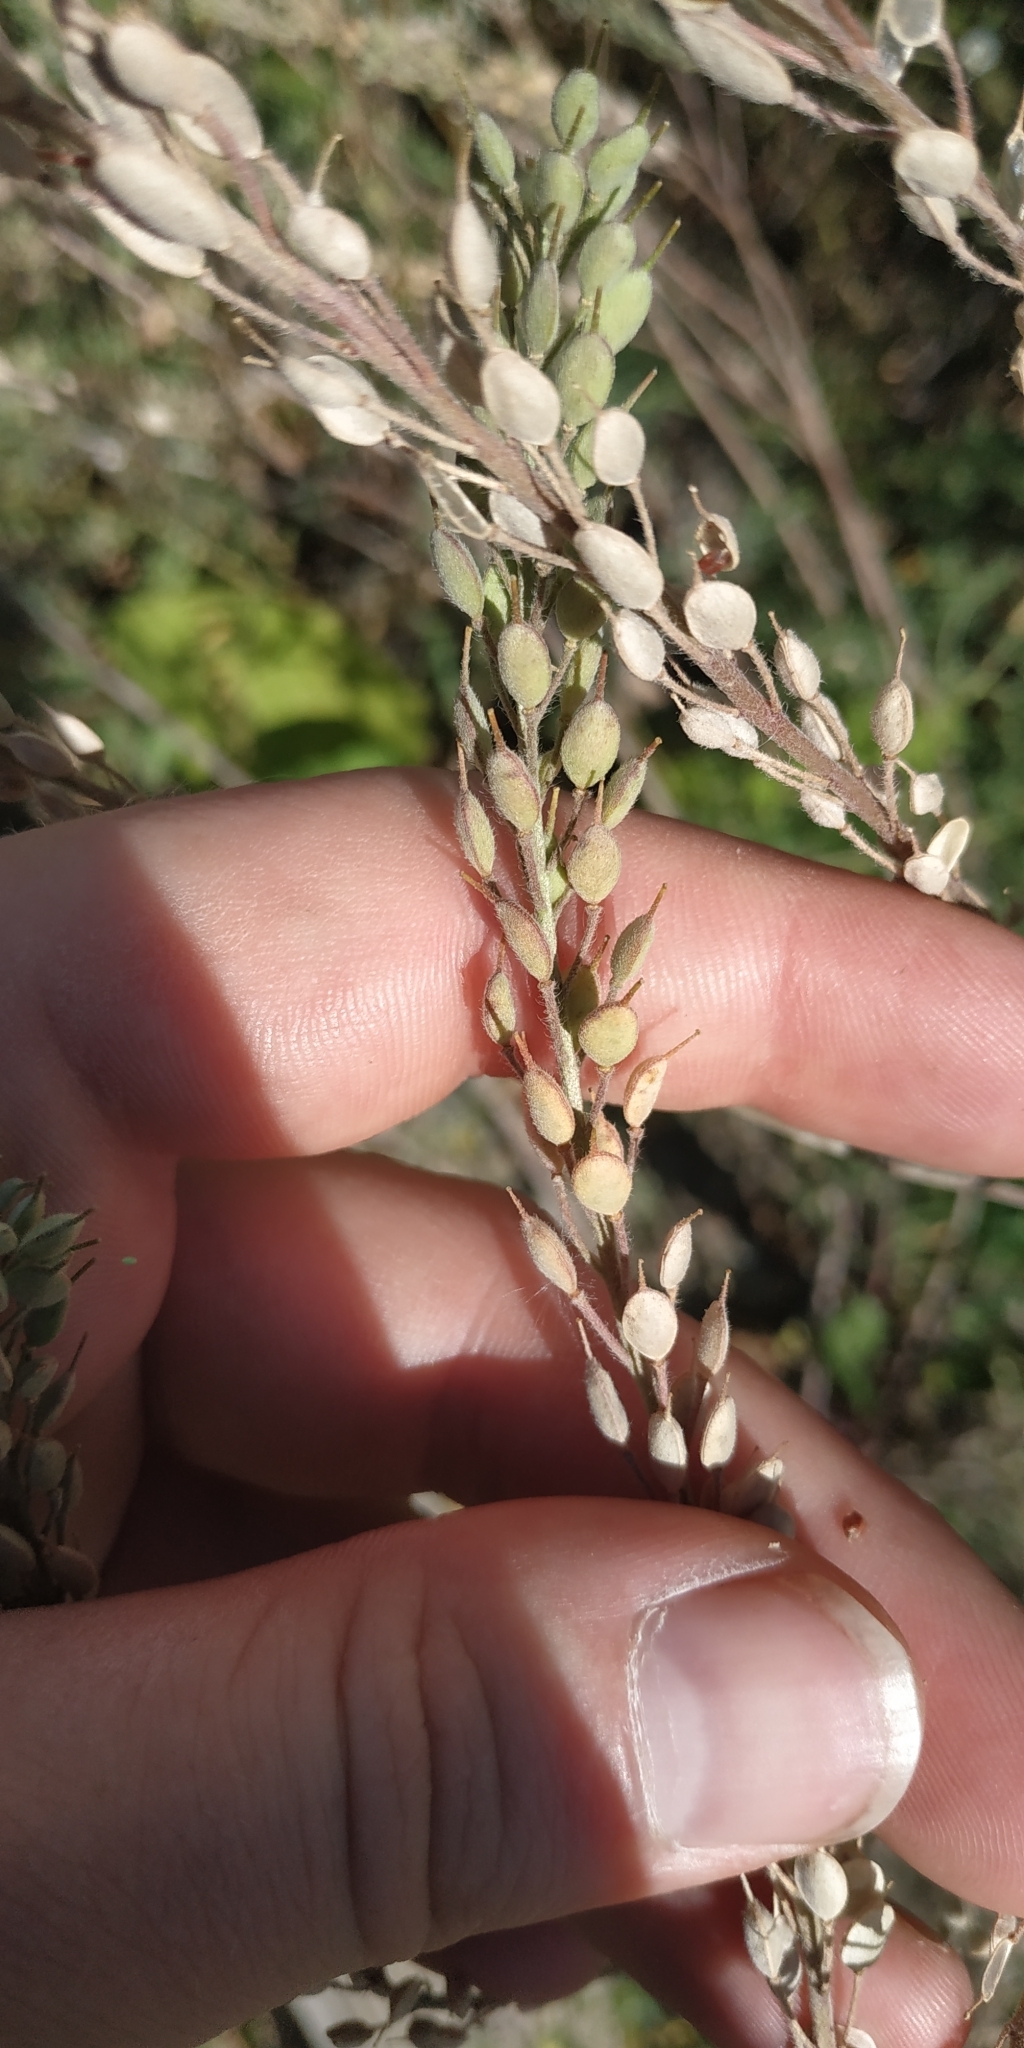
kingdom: Plantae
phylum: Tracheophyta
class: Magnoliopsida
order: Brassicales
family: Brassicaceae
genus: Berteroa
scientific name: Berteroa incana
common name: Hoary alison
